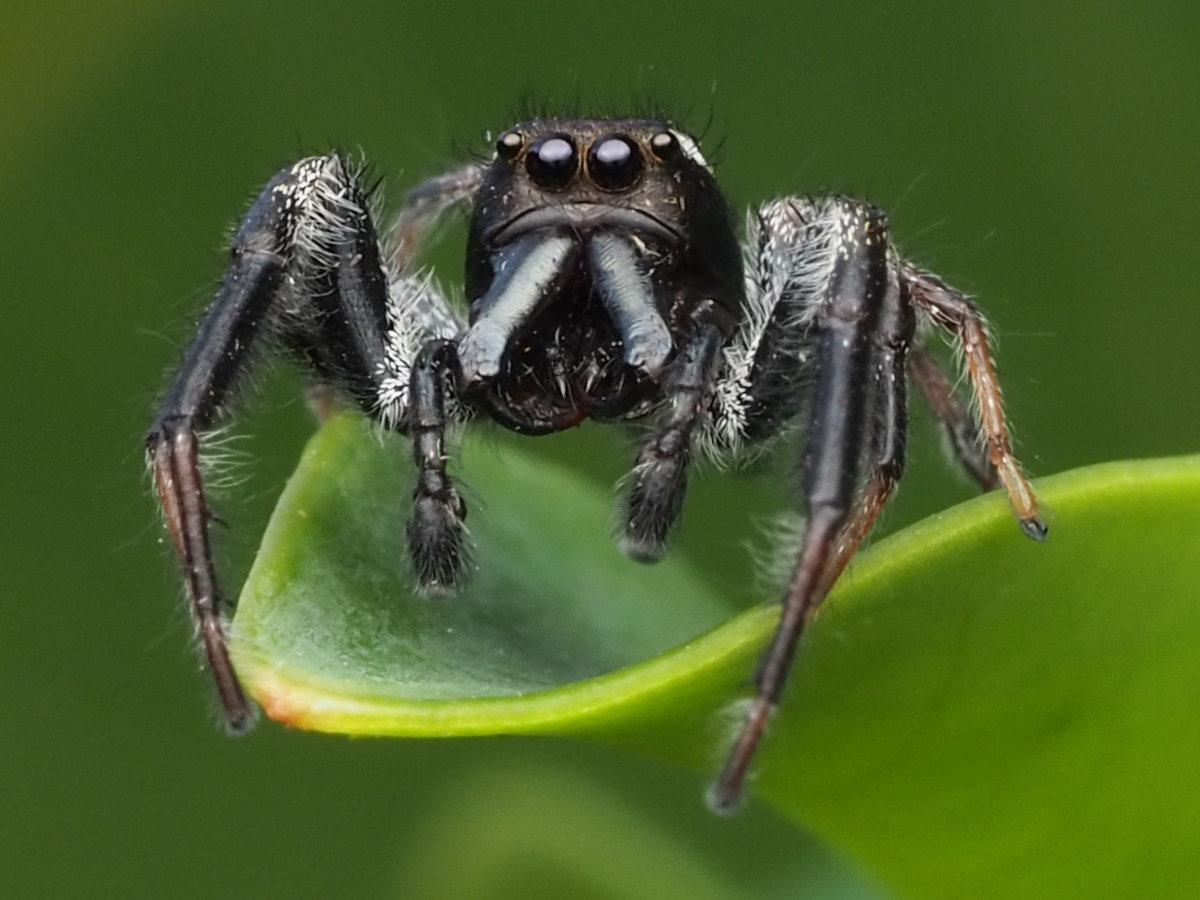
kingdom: Animalia
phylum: Arthropoda
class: Arachnida
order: Araneae
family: Salticidae
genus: Paraphidippus
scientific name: Paraphidippus aurantius
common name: Jumping spiders
